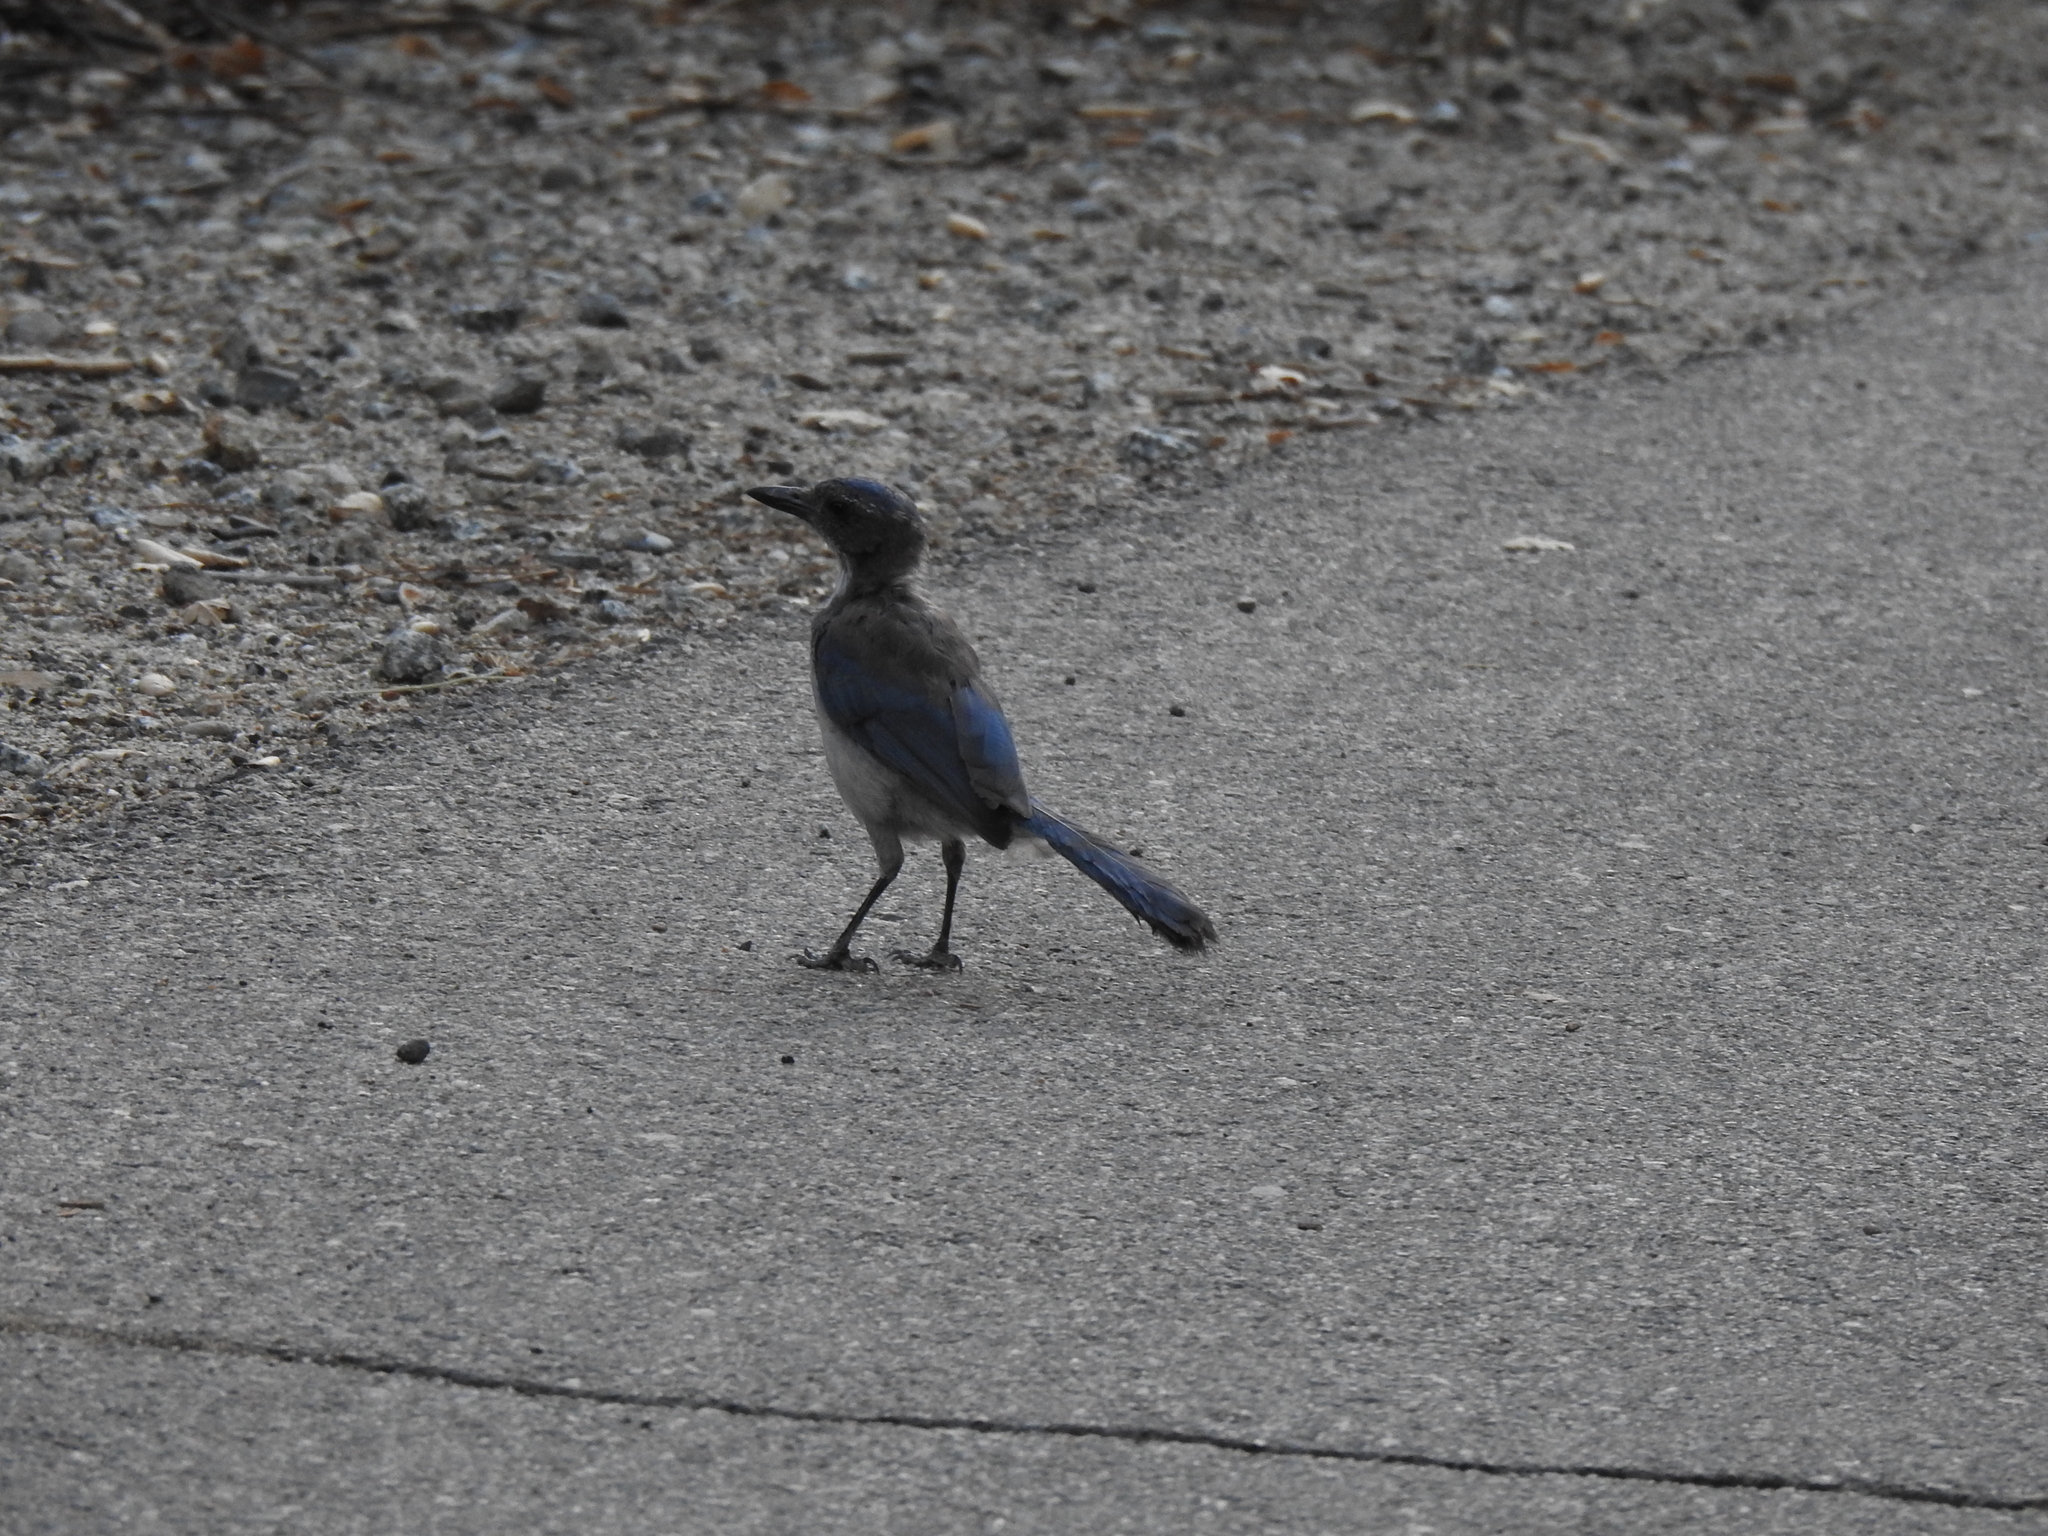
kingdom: Animalia
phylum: Chordata
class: Aves
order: Passeriformes
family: Corvidae
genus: Aphelocoma
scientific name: Aphelocoma californica
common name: California scrub-jay
